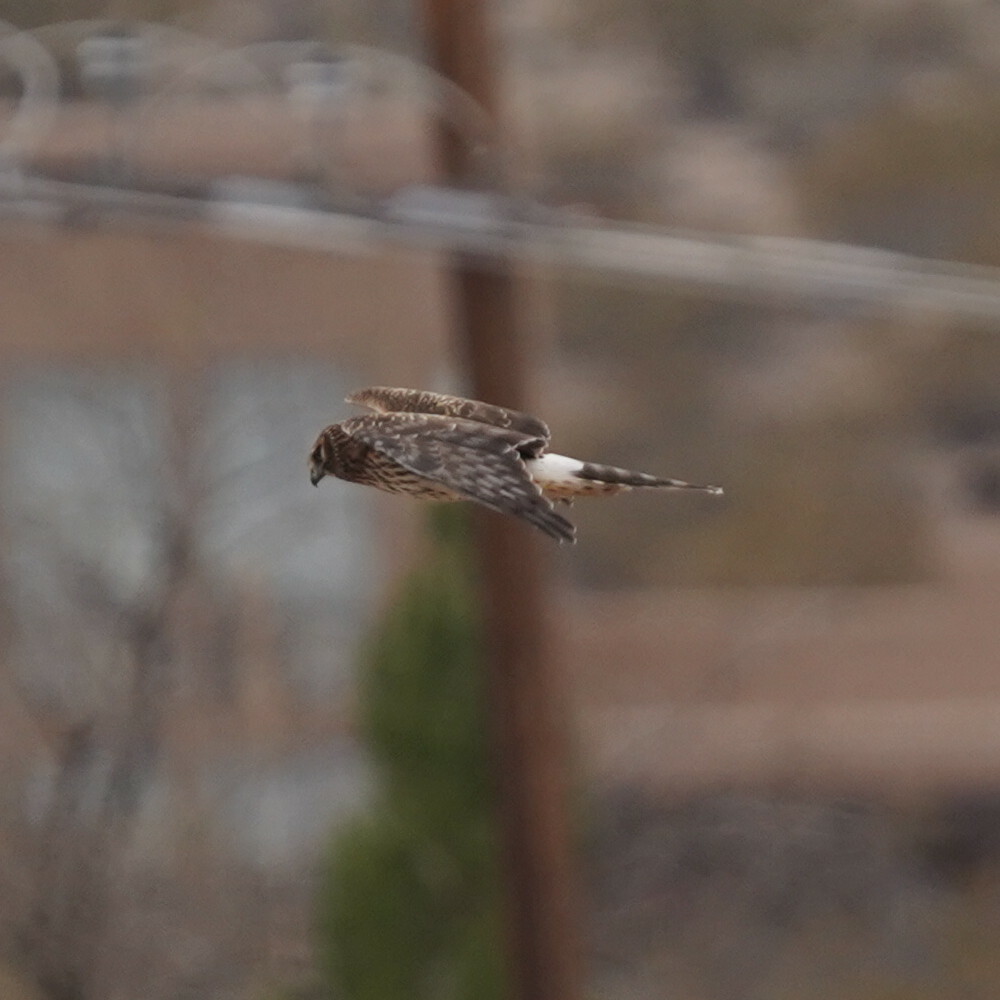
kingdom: Animalia
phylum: Chordata
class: Aves
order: Accipitriformes
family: Accipitridae
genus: Circus
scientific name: Circus cyaneus
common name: Hen harrier
